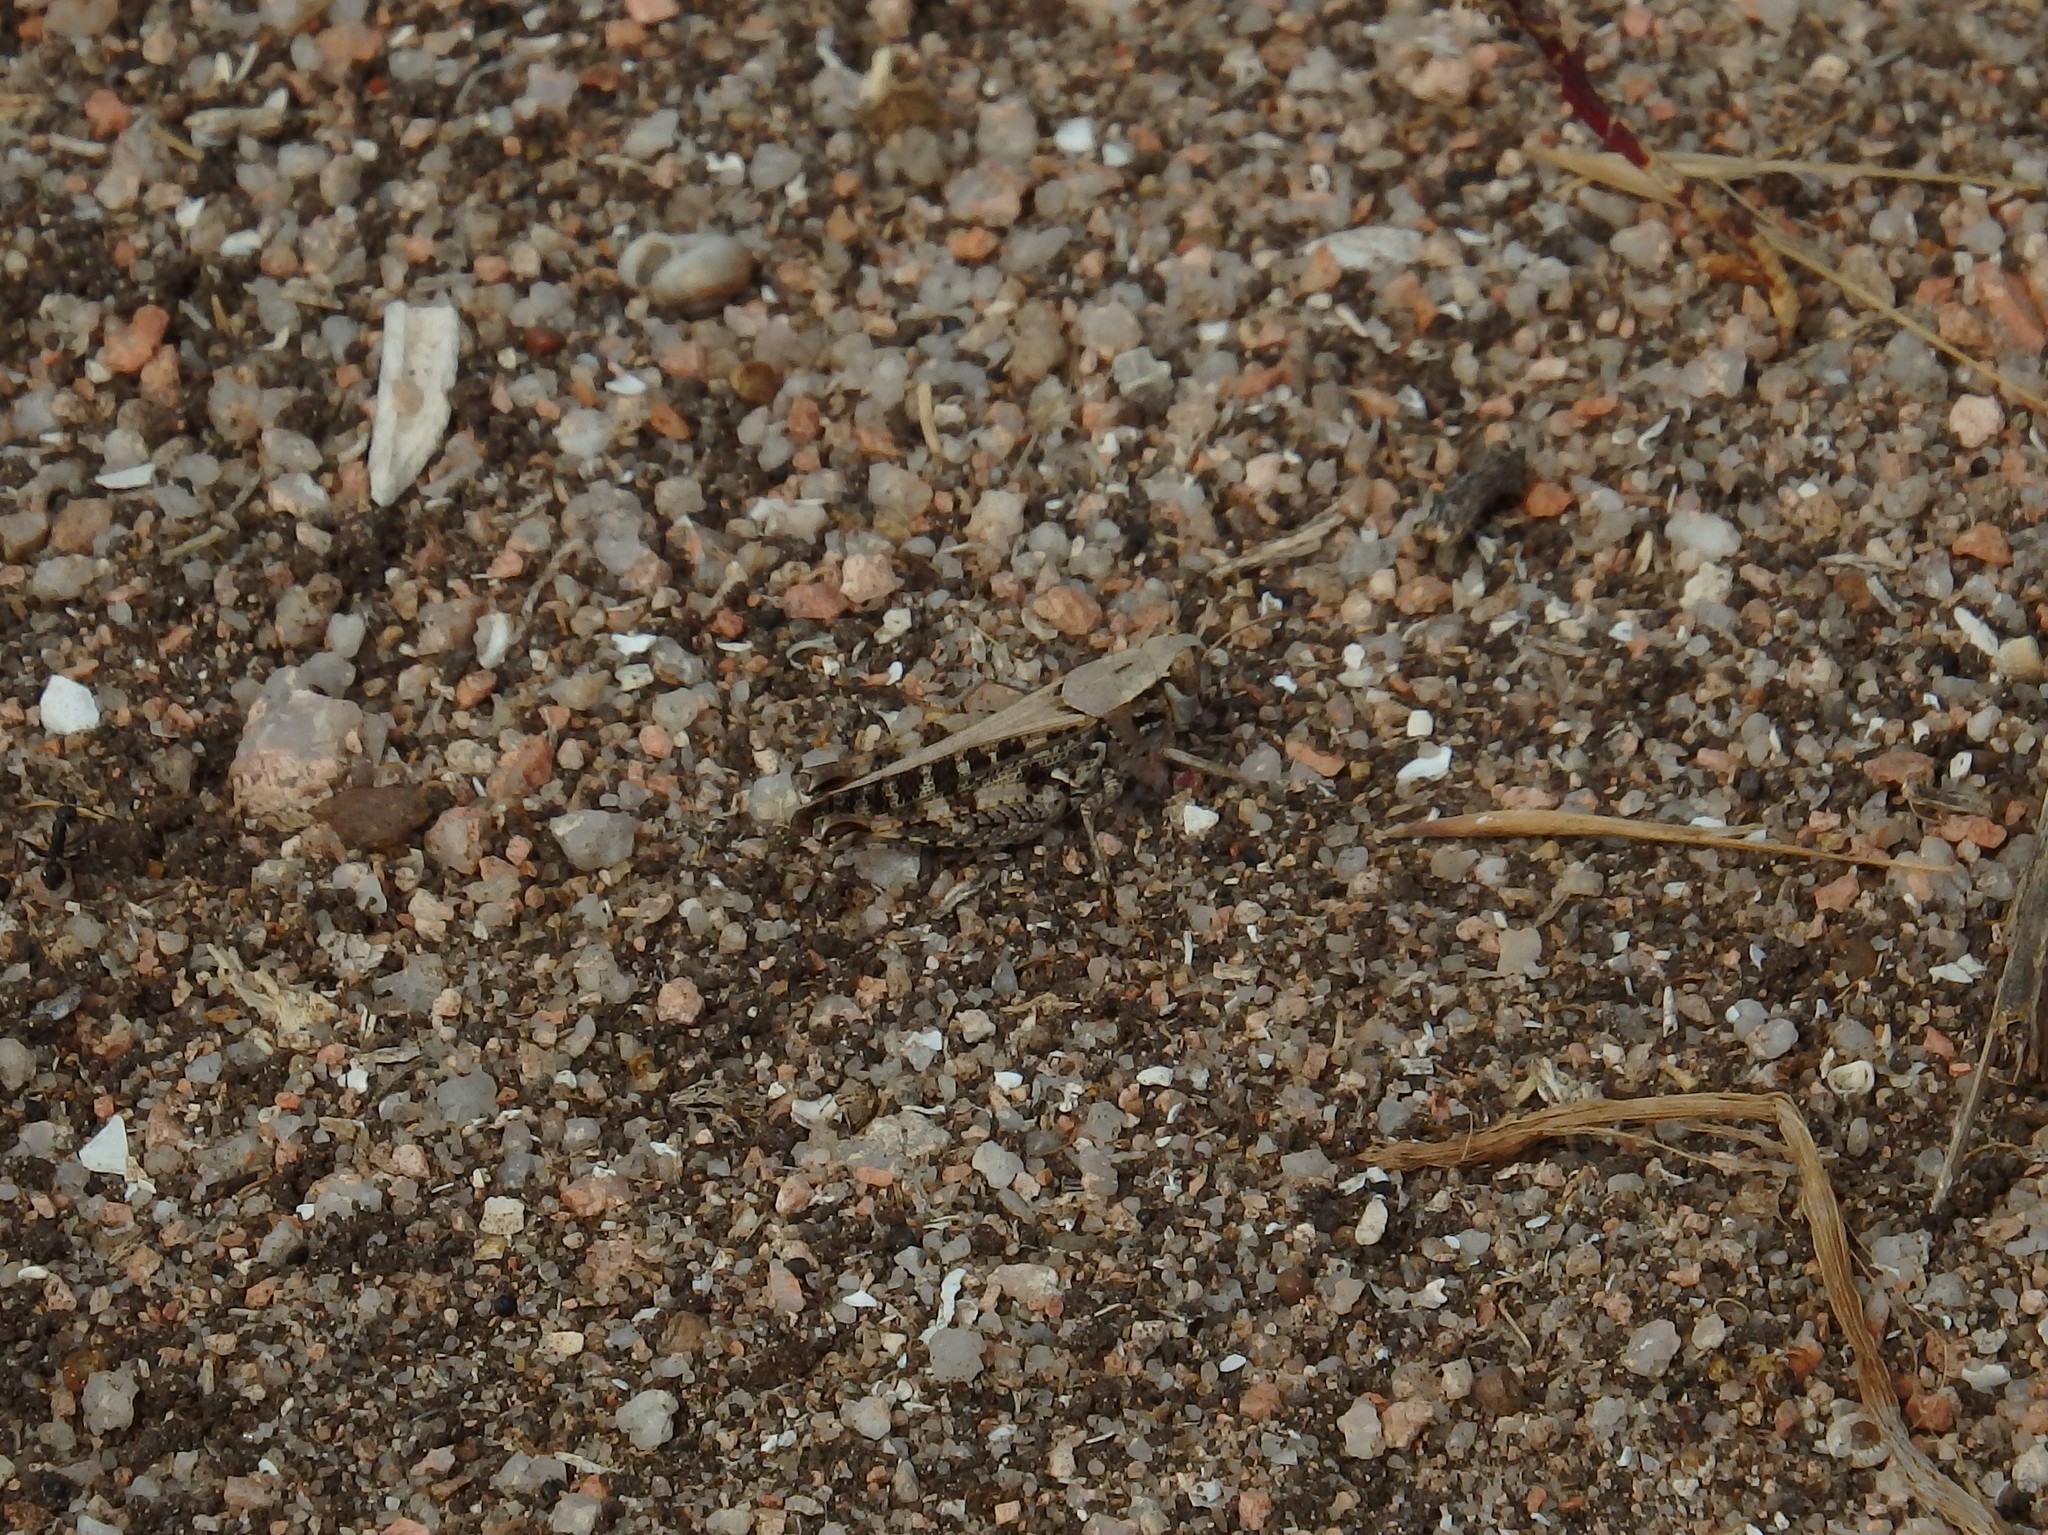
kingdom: Animalia
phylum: Arthropoda
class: Insecta
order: Orthoptera
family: Acrididae
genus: Calliptamus
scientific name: Calliptamus barbarus
